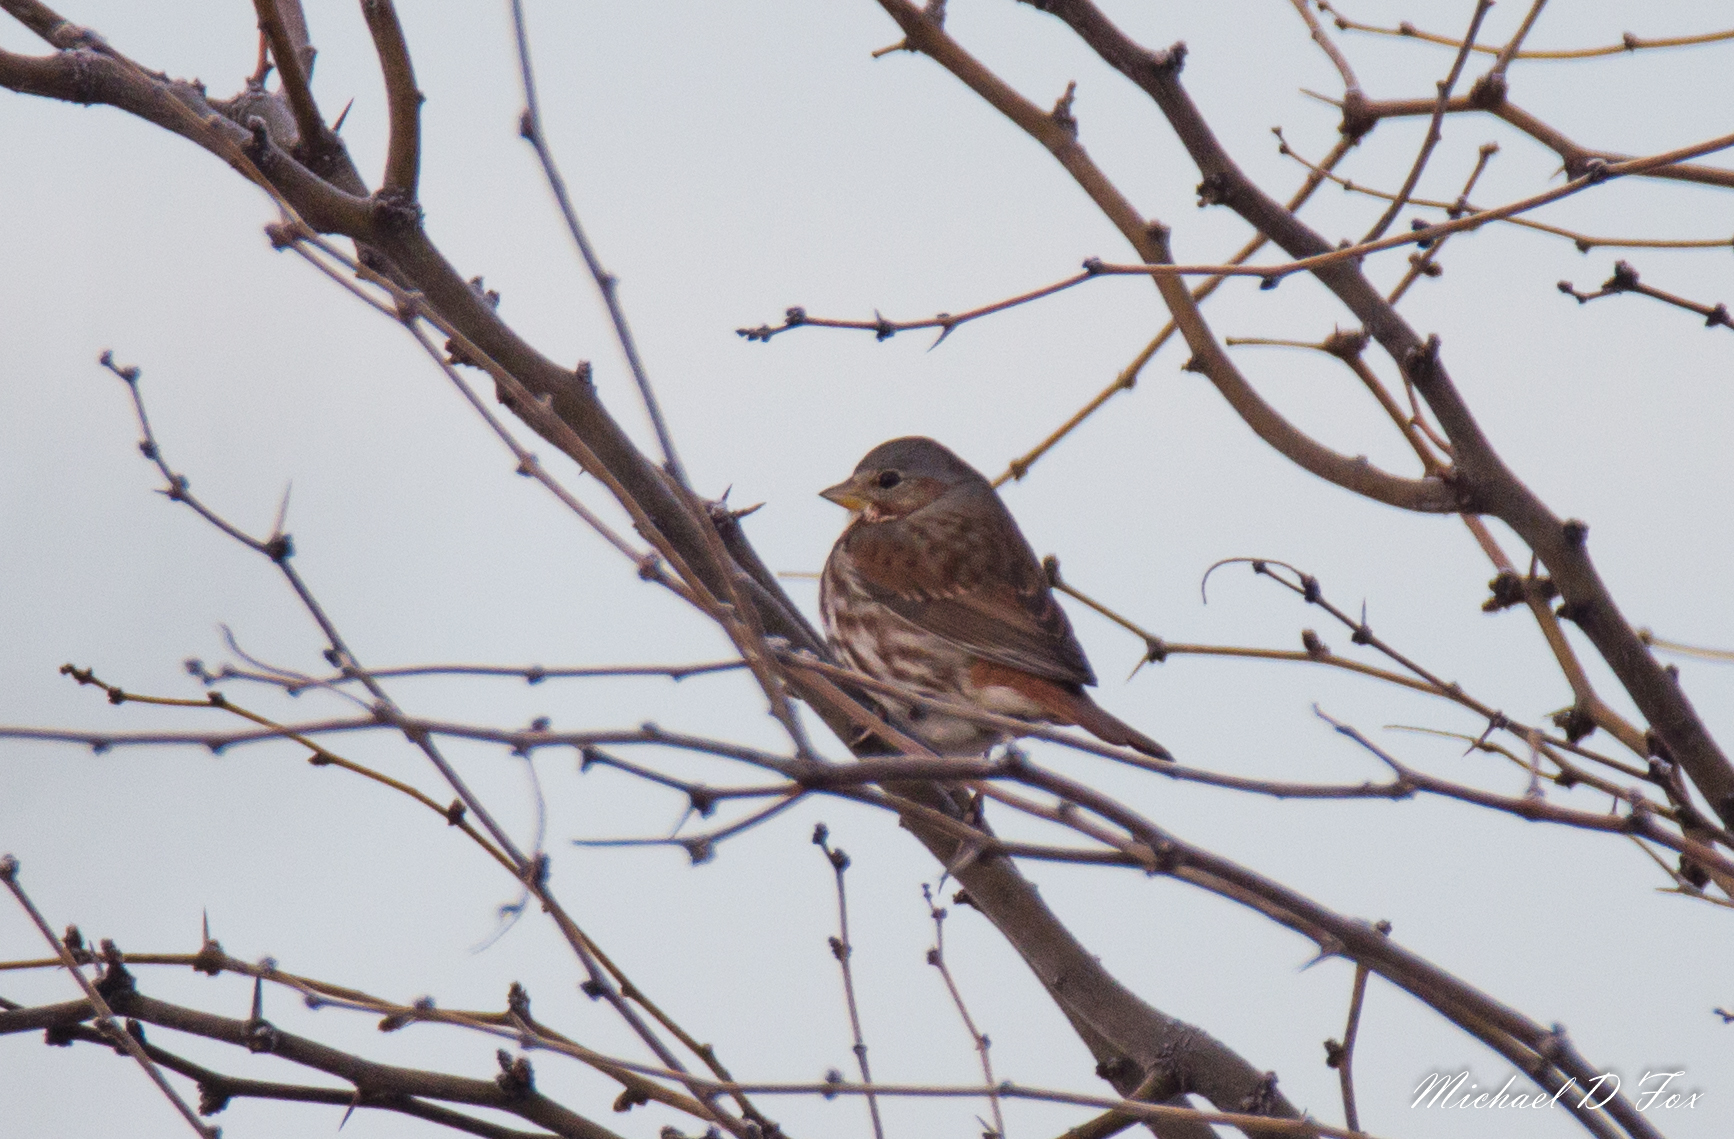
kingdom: Animalia
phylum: Chordata
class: Aves
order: Passeriformes
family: Passerellidae
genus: Passerella
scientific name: Passerella iliaca
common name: Fox sparrow
